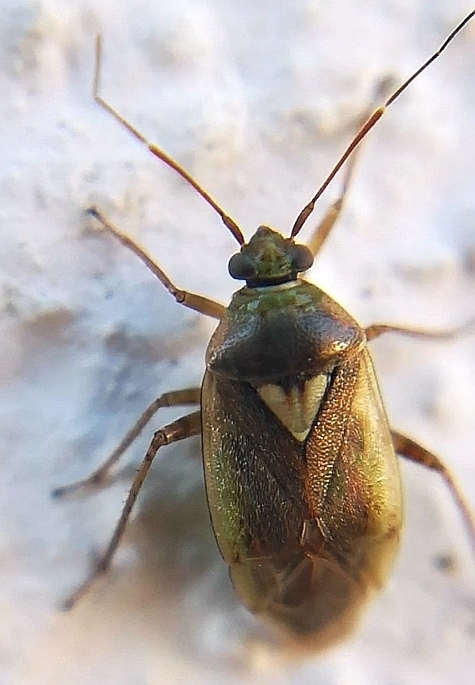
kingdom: Animalia
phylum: Arthropoda
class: Insecta
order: Hemiptera
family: Miridae
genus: Lygus
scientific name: Lygus rugulipennis
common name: European tarnished plant bug
